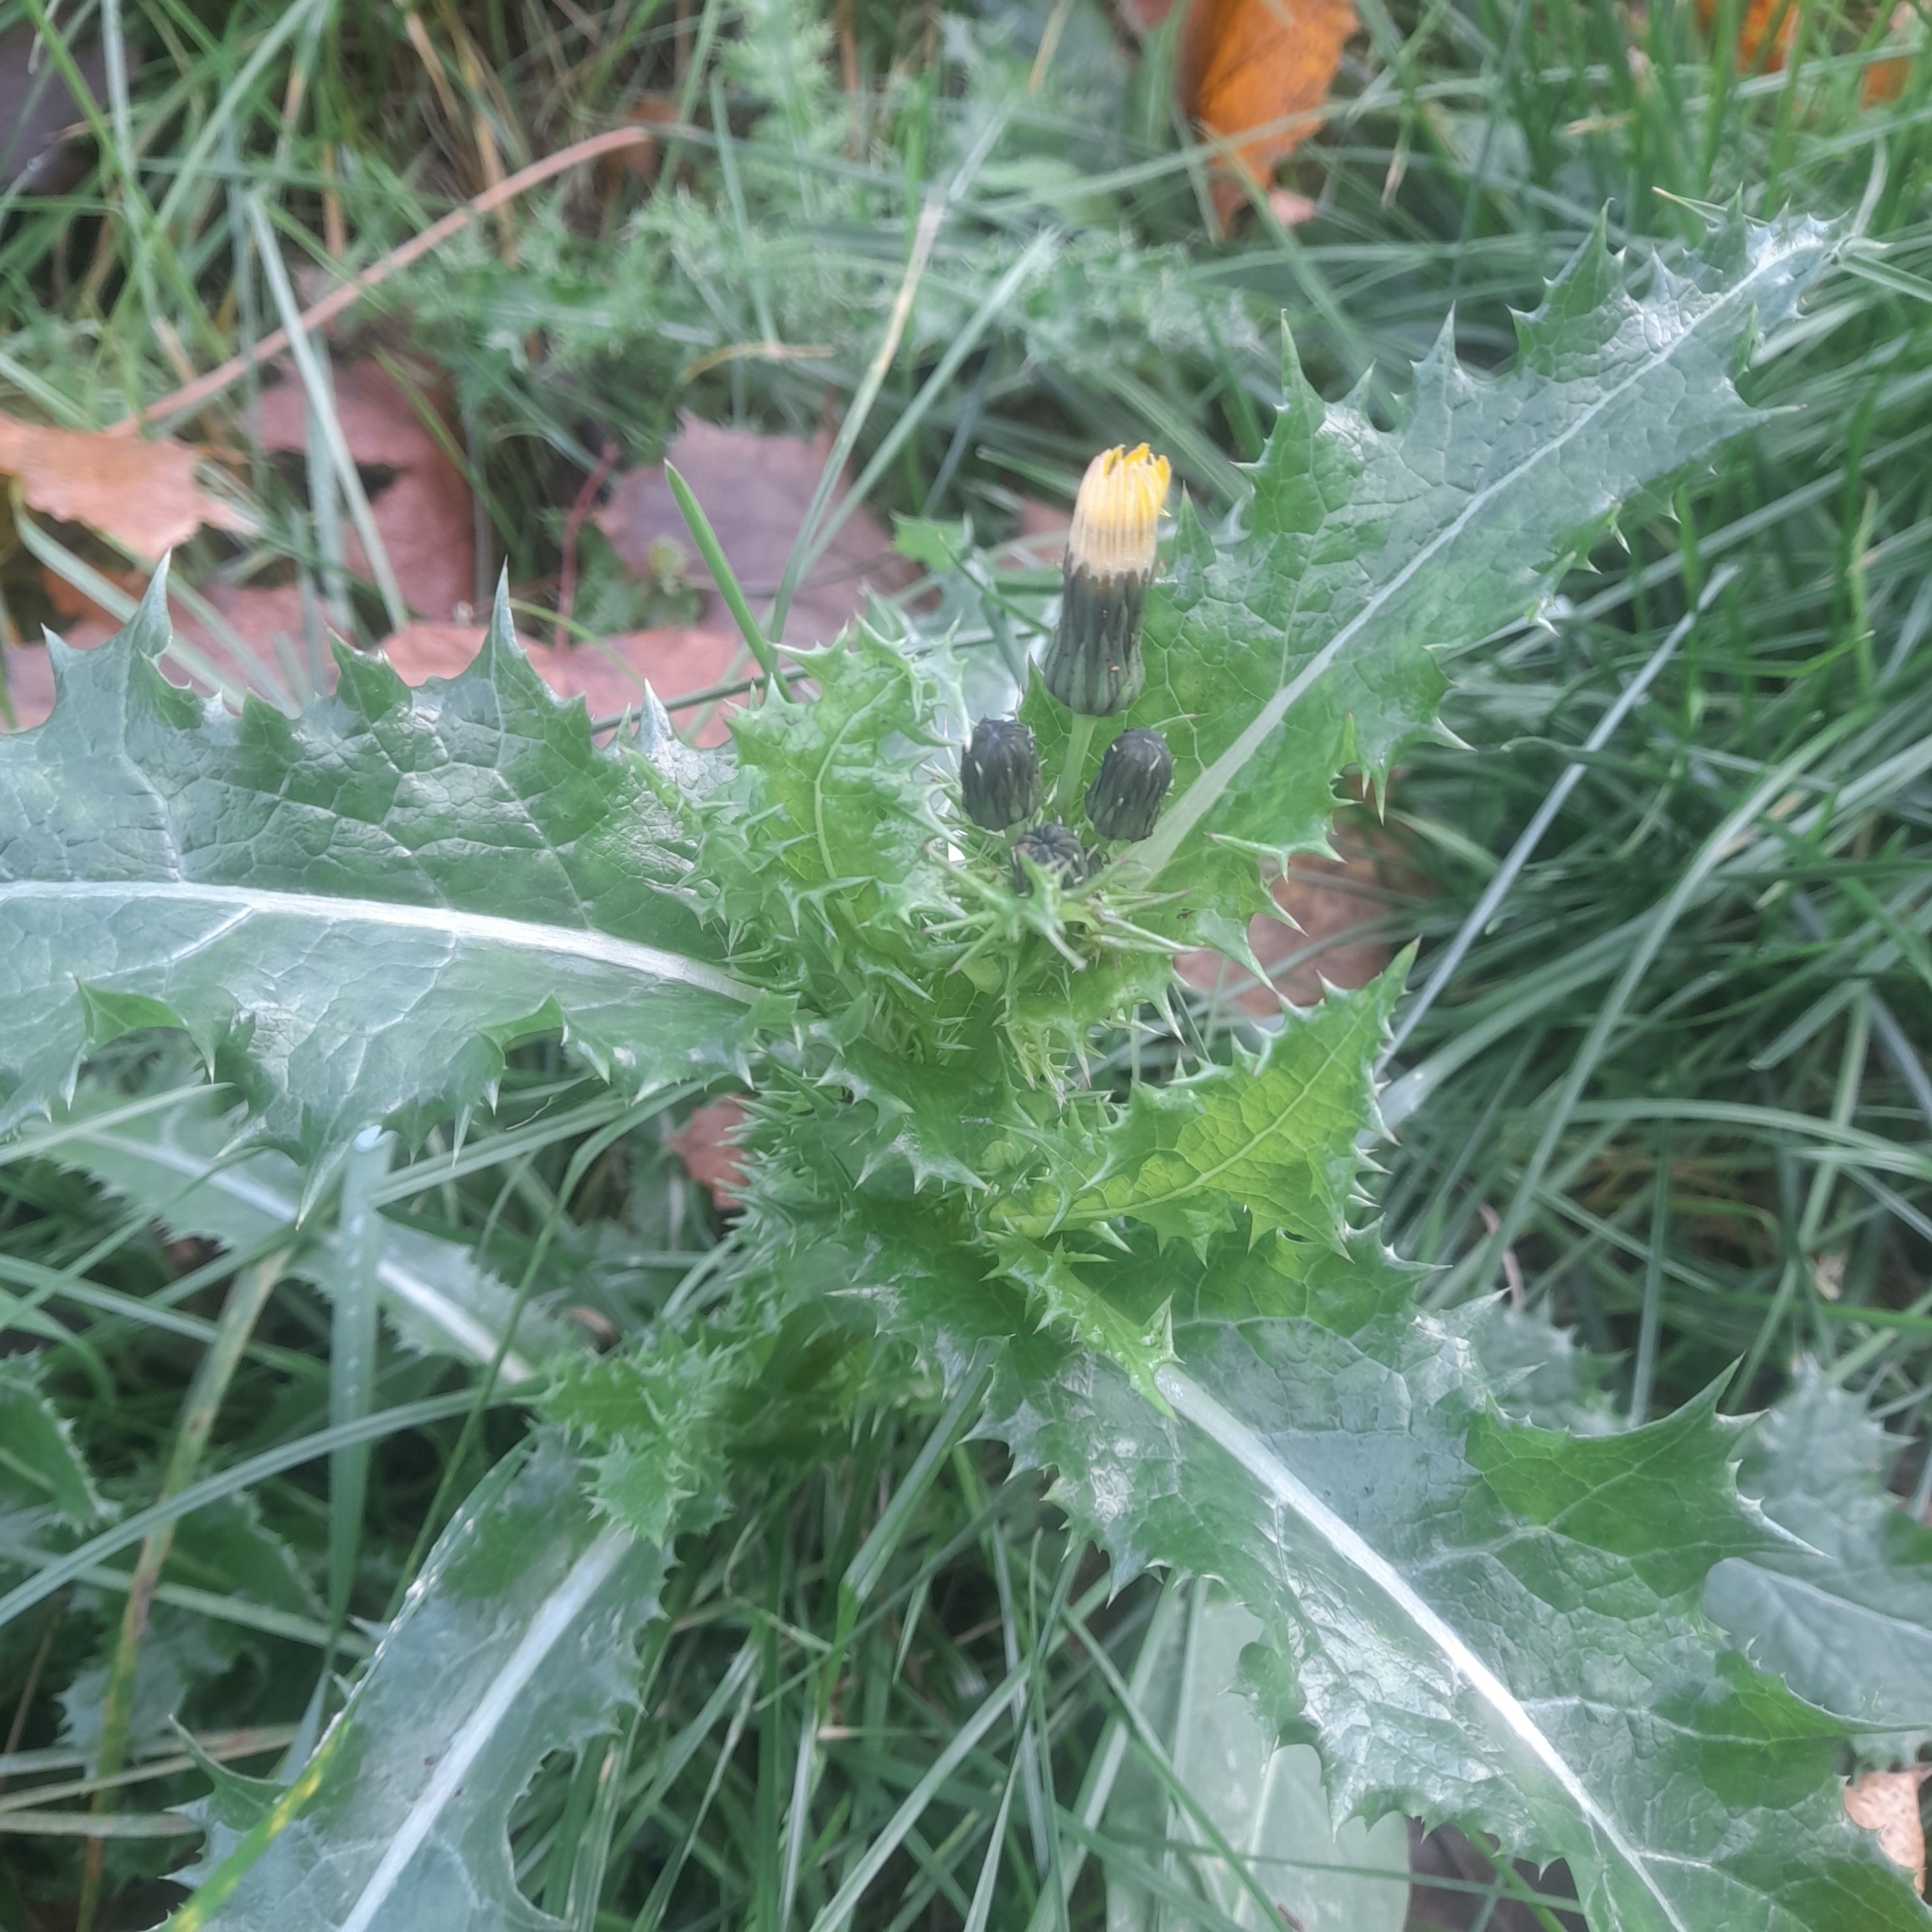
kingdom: Plantae
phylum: Tracheophyta
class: Magnoliopsida
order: Asterales
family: Asteraceae
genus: Sonchus
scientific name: Sonchus asper
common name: Prickly sow-thistle
